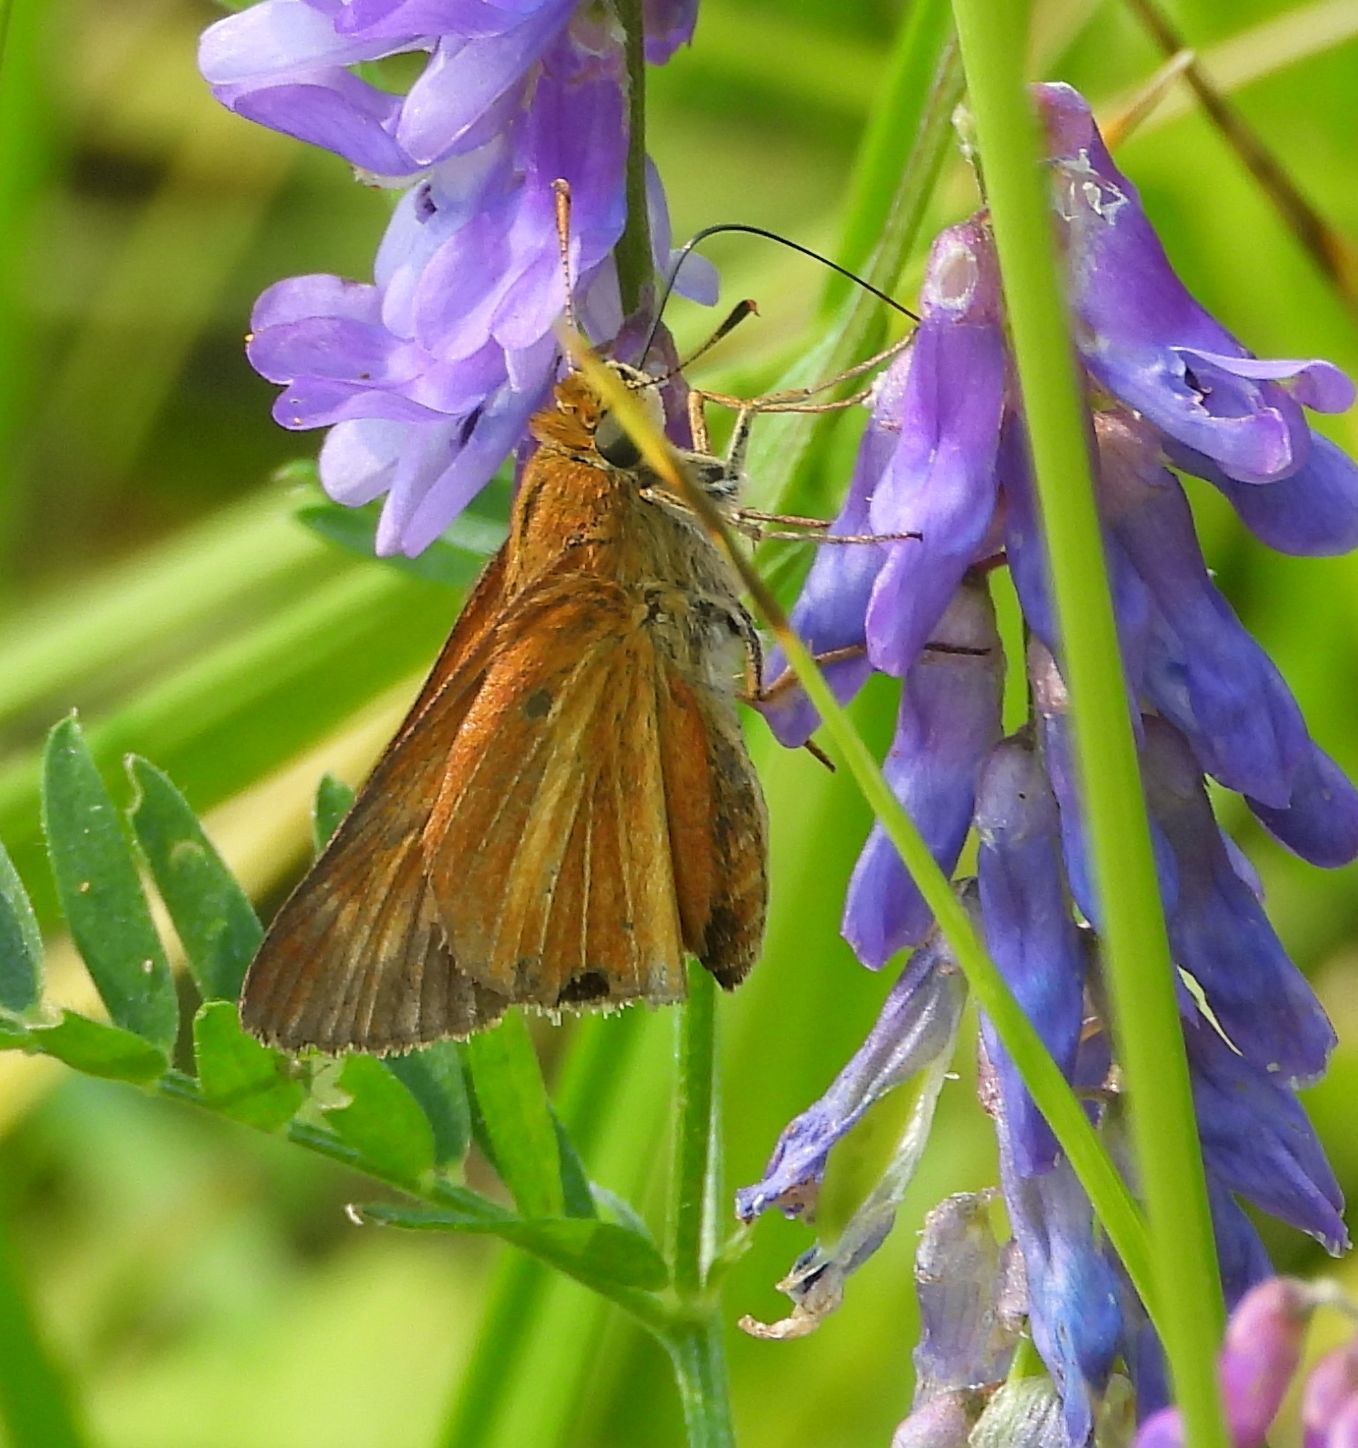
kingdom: Animalia
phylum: Arthropoda
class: Insecta
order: Lepidoptera
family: Hesperiidae
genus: Euphyes
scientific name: Euphyes dion
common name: Dion skipper
